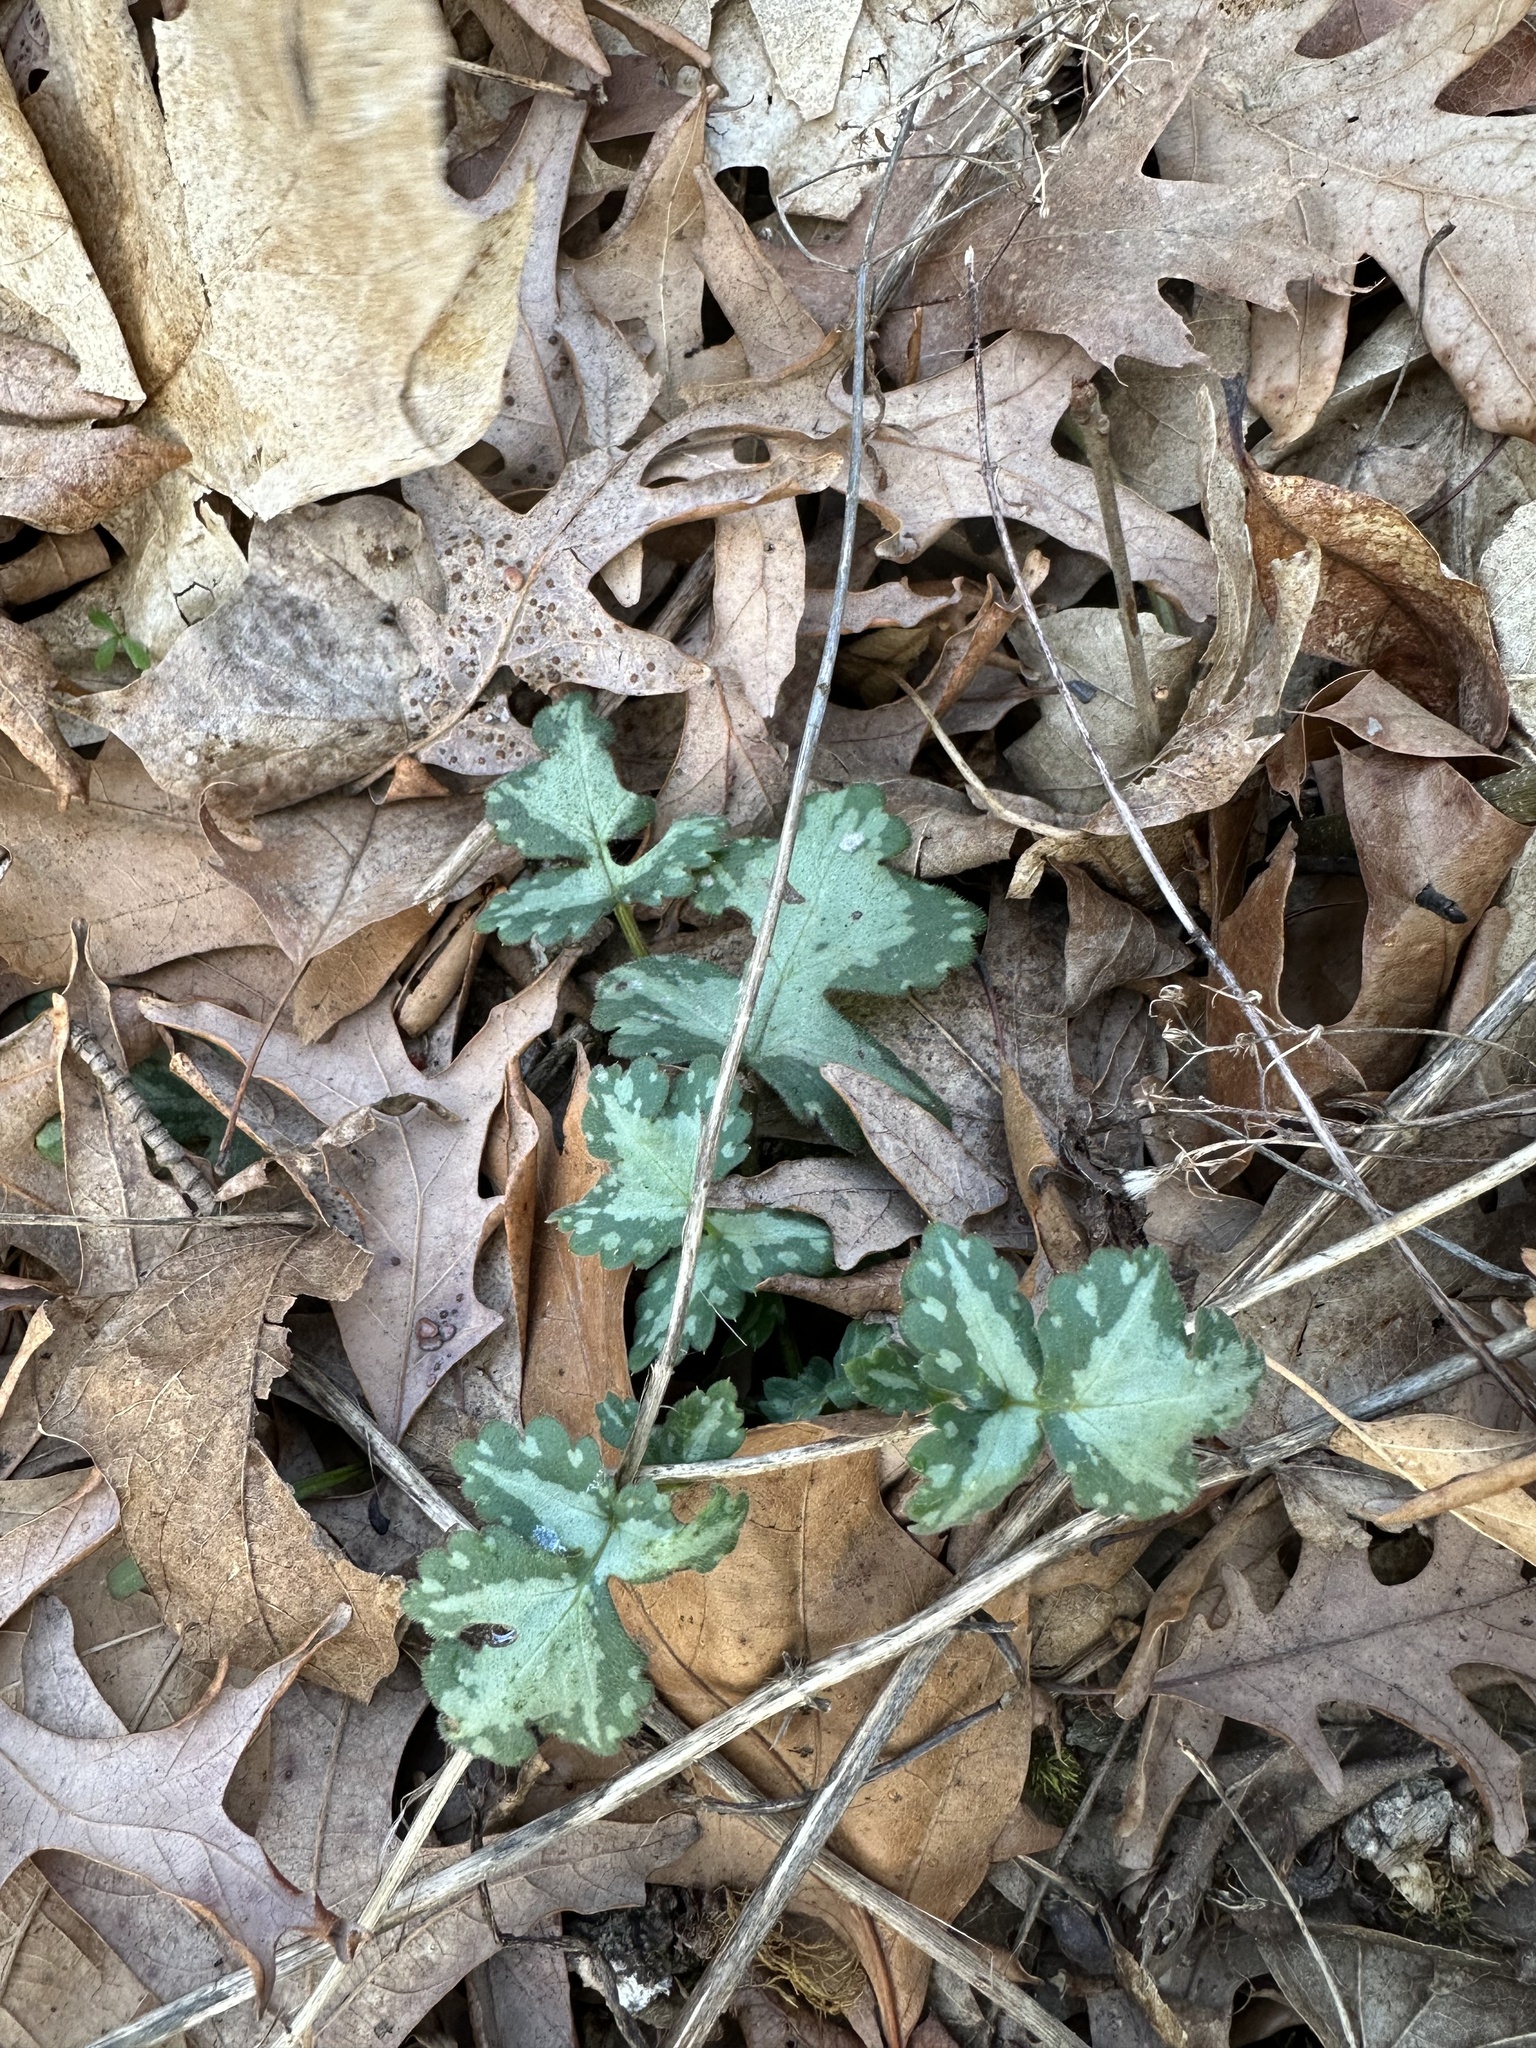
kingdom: Plantae
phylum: Tracheophyta
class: Magnoliopsida
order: Boraginales
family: Hydrophyllaceae
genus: Hydrophyllum
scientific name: Hydrophyllum appendiculatum
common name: Appendaged waterleaf
